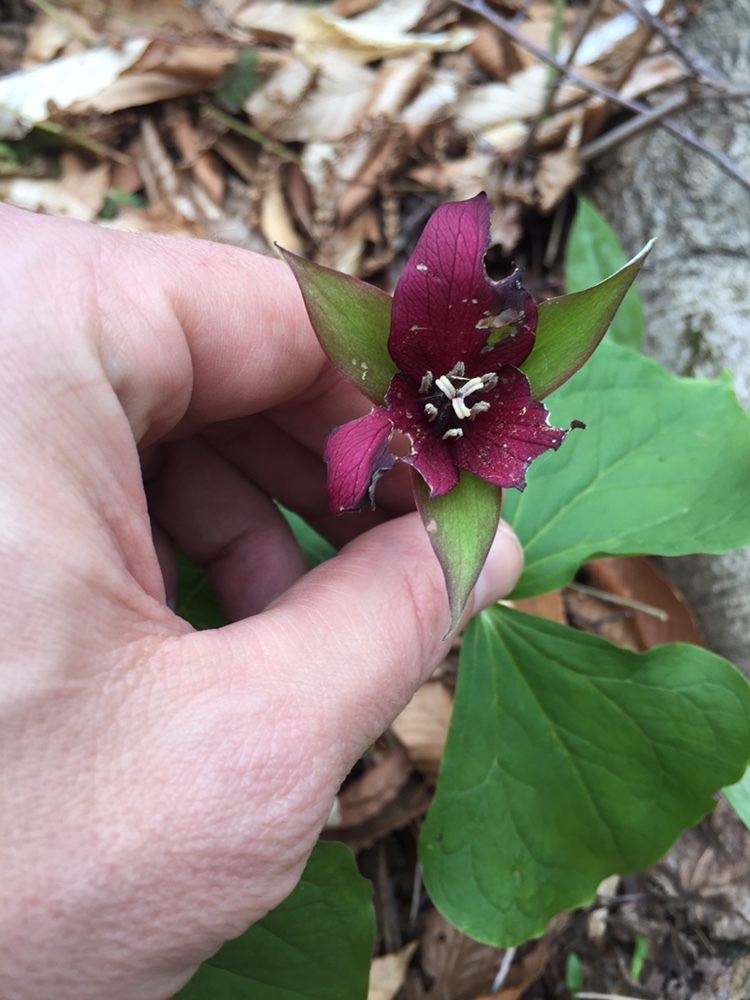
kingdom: Plantae
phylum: Tracheophyta
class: Liliopsida
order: Liliales
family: Melanthiaceae
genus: Trillium
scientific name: Trillium erectum
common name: Purple trillium
